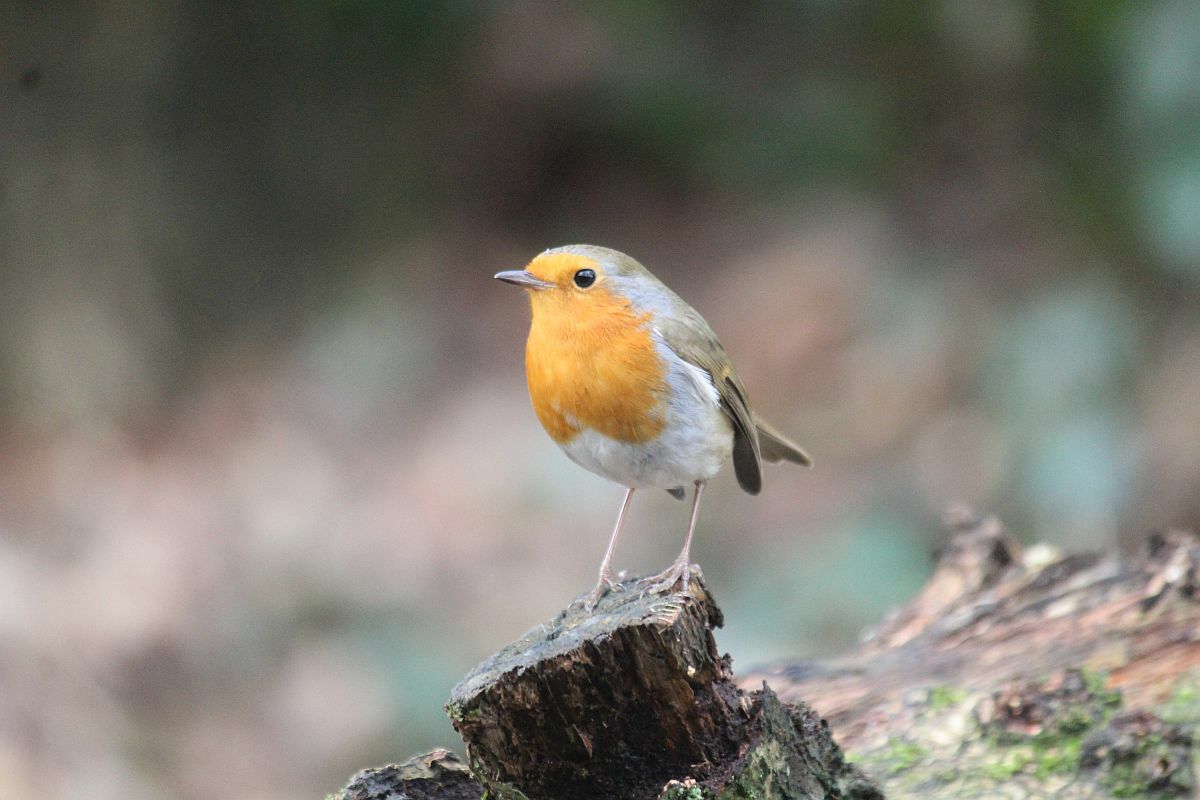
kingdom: Animalia
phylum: Chordata
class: Aves
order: Passeriformes
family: Muscicapidae
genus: Erithacus
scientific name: Erithacus rubecula
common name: European robin
